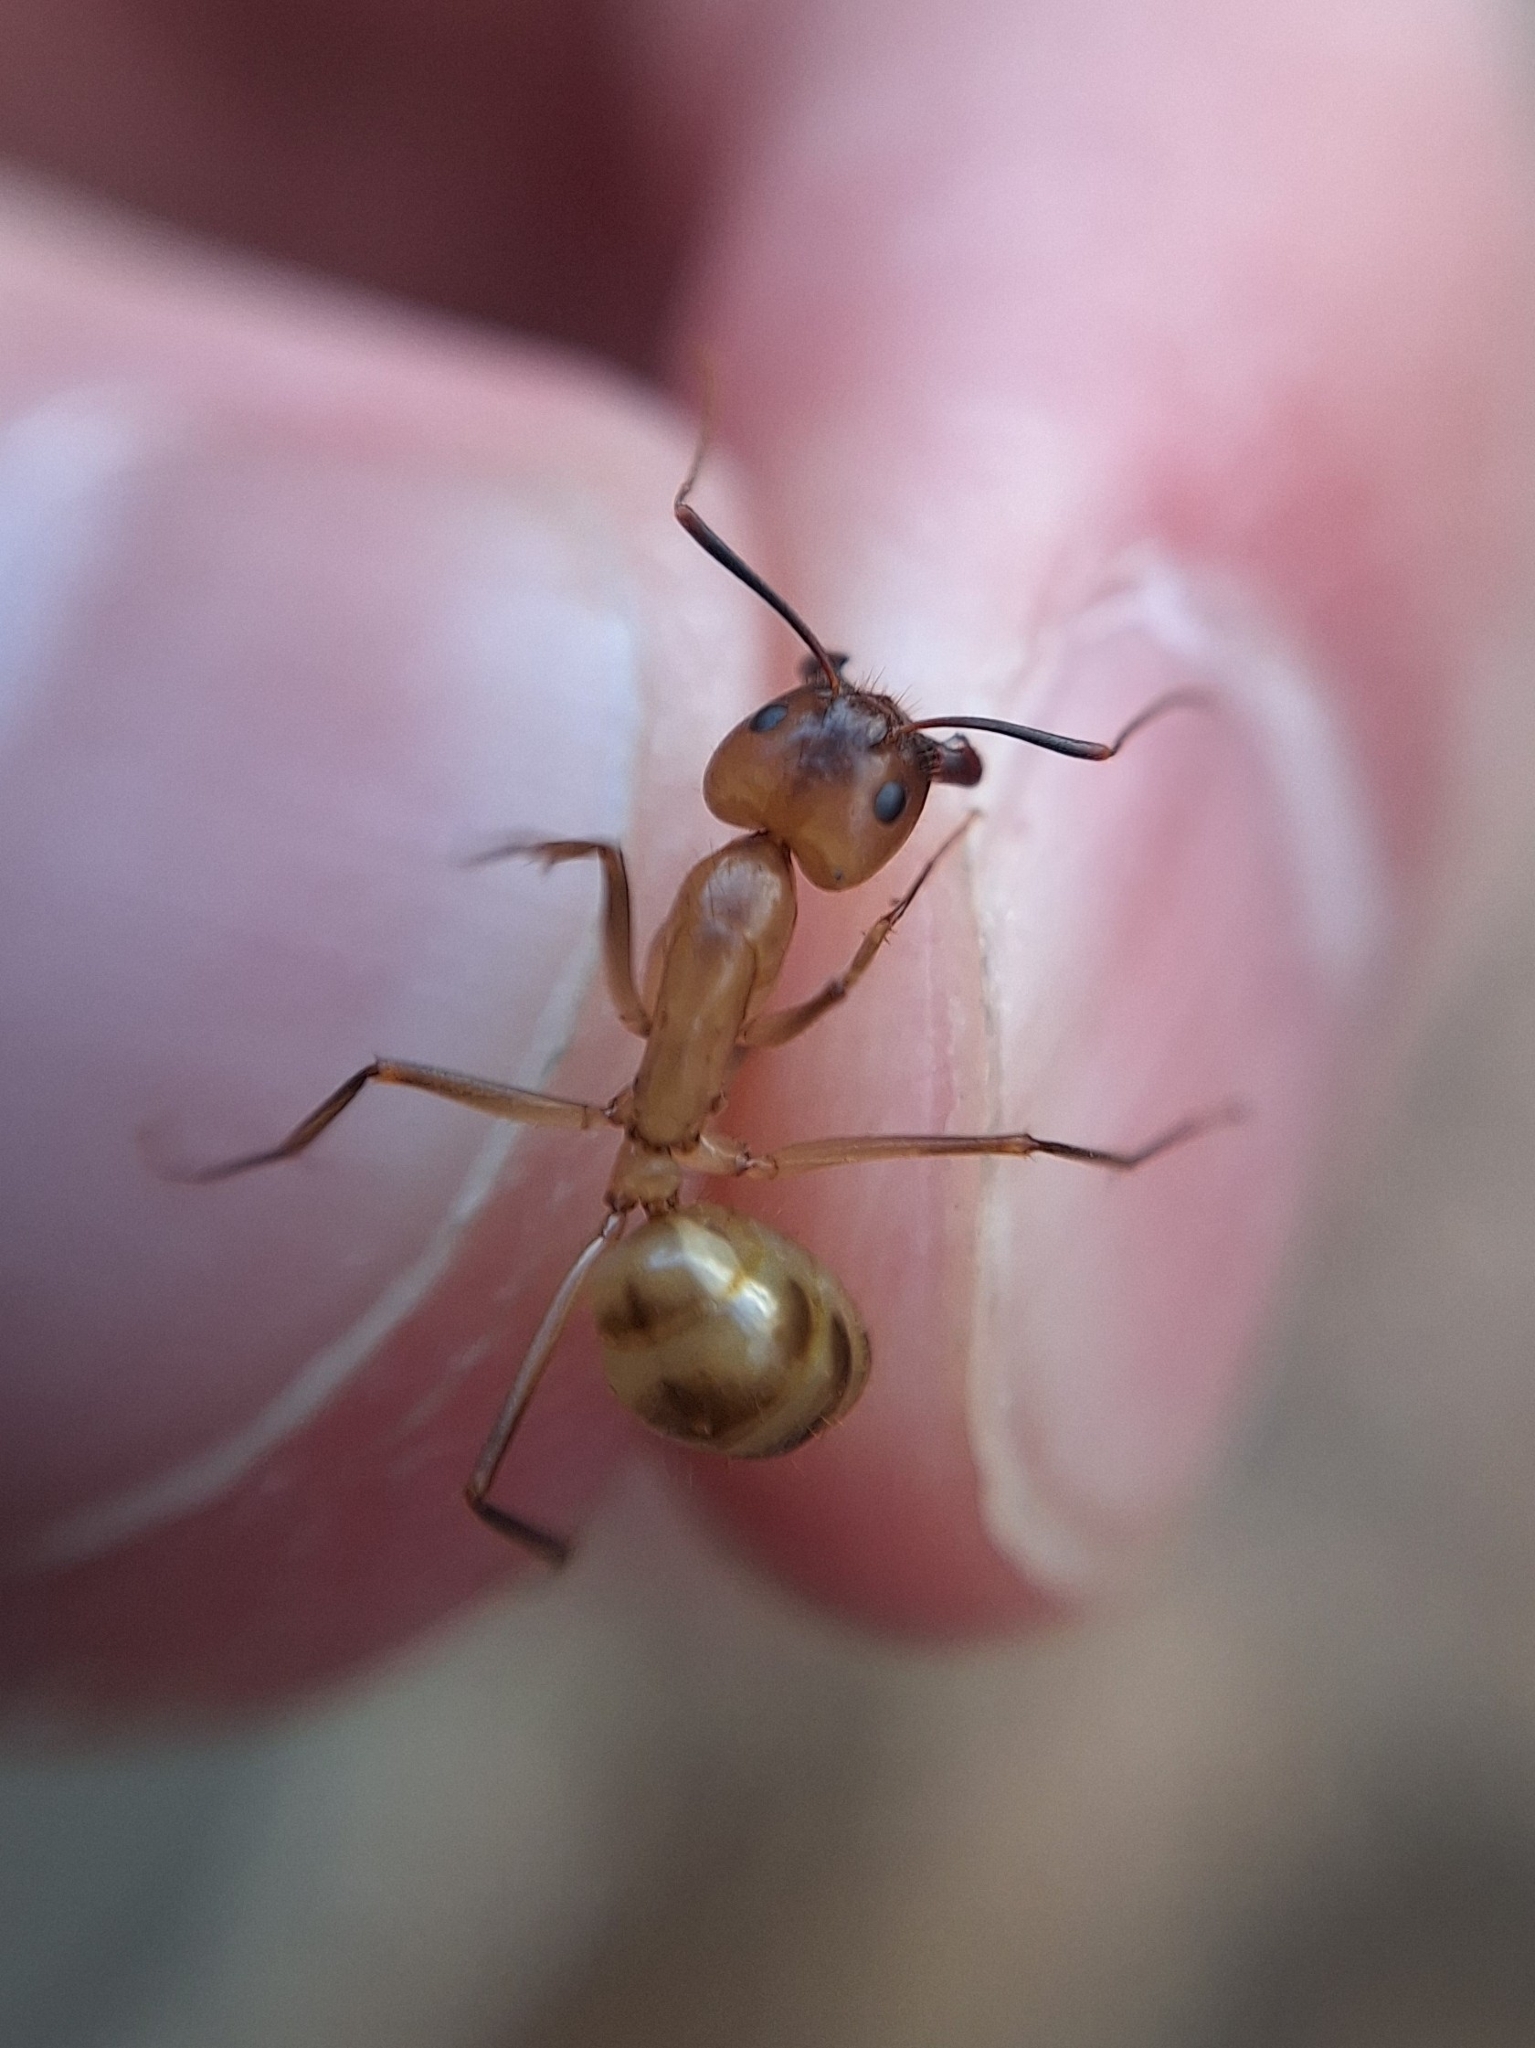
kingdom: Animalia
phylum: Arthropoda
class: Insecta
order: Hymenoptera
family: Formicidae
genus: Camponotus
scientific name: Camponotus festinatus
